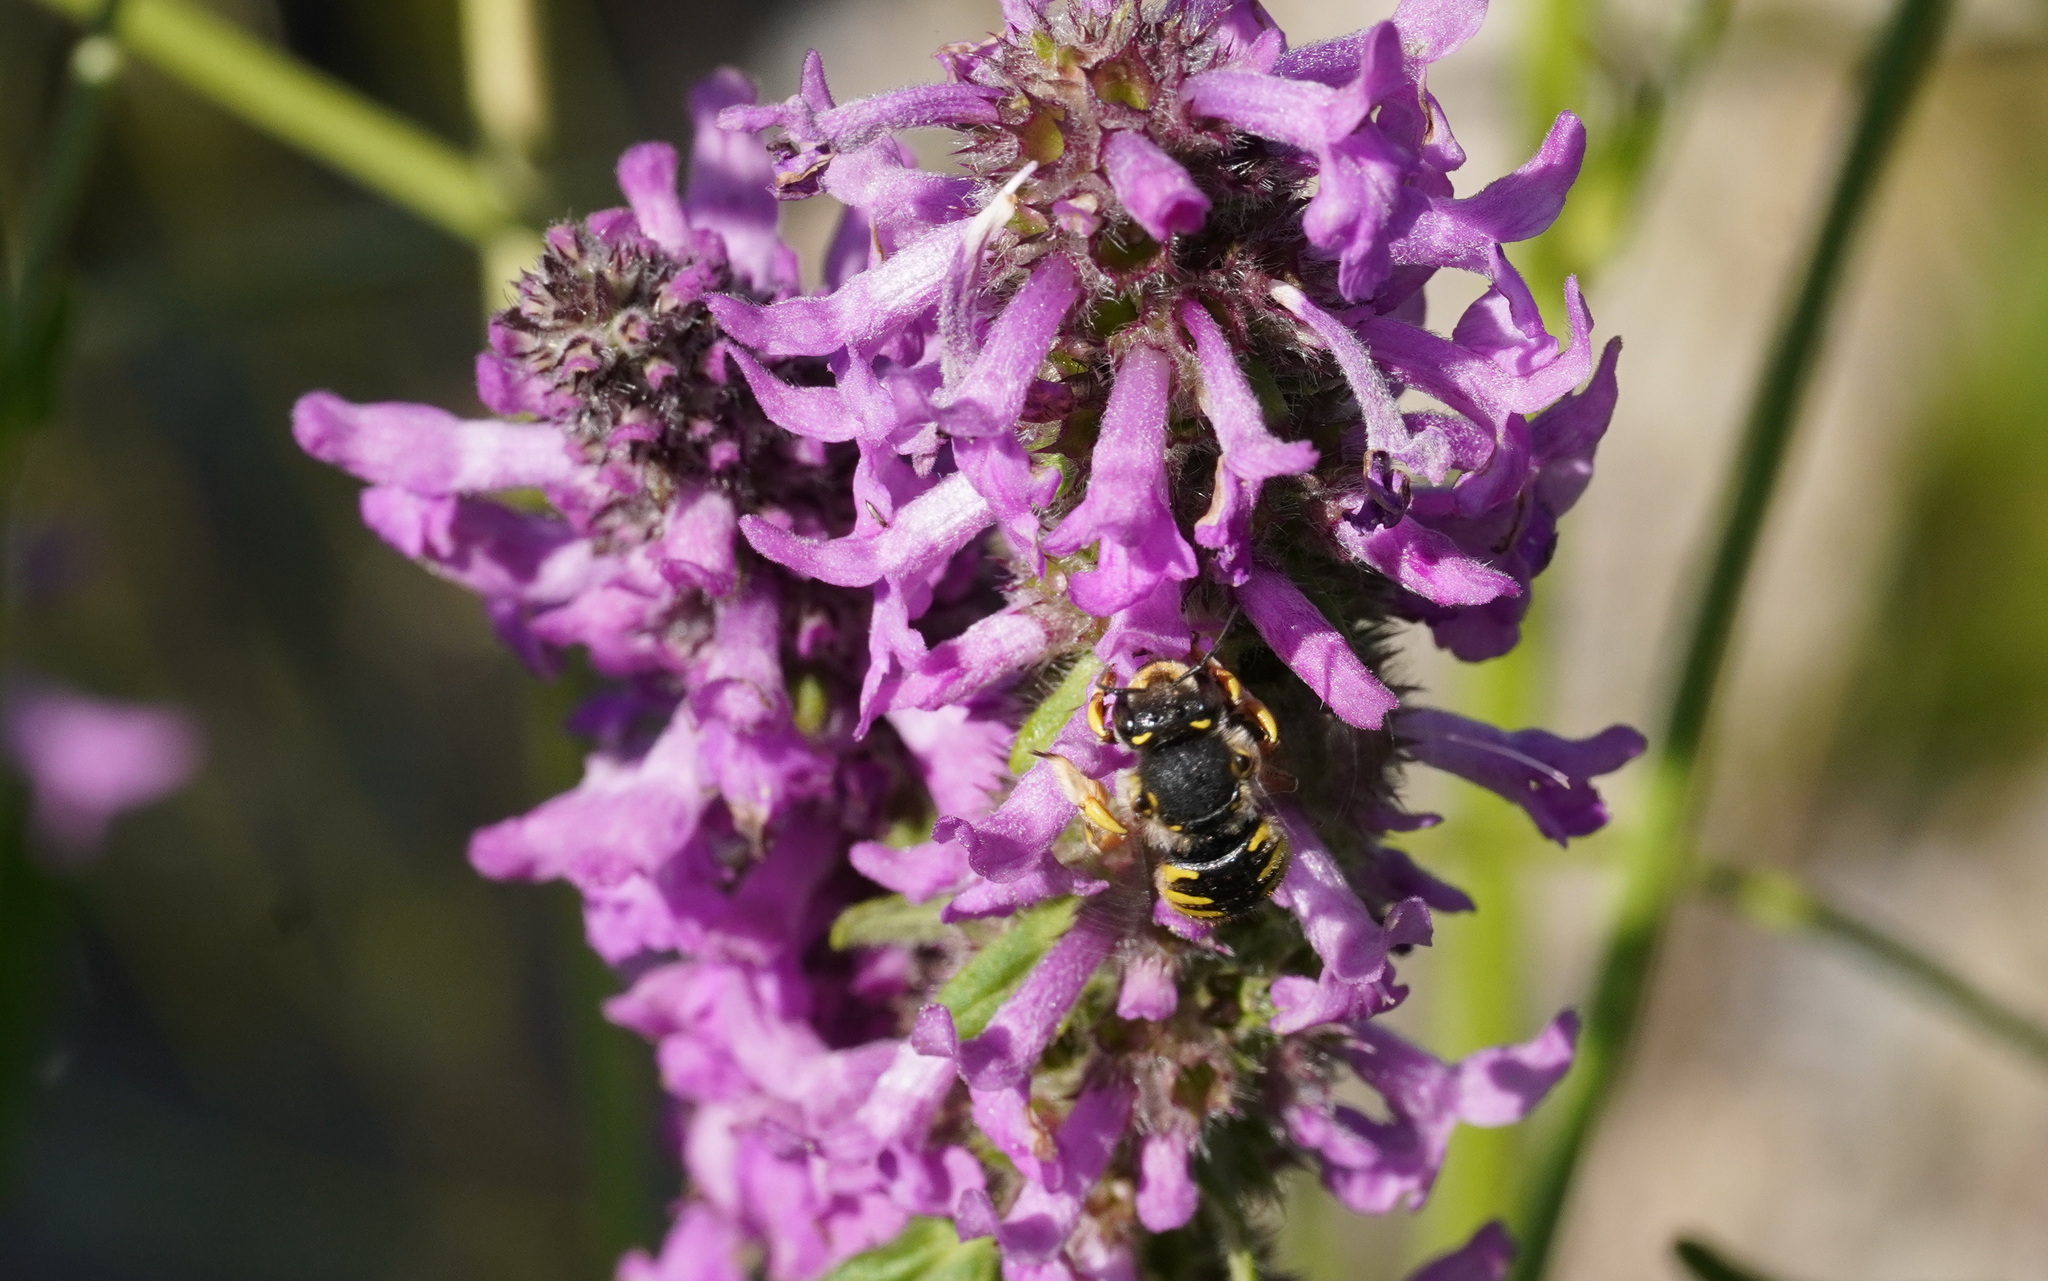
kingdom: Animalia
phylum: Arthropoda
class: Insecta
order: Hymenoptera
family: Megachilidae
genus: Anthidium
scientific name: Anthidium manicatum
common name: Wool carder bee
